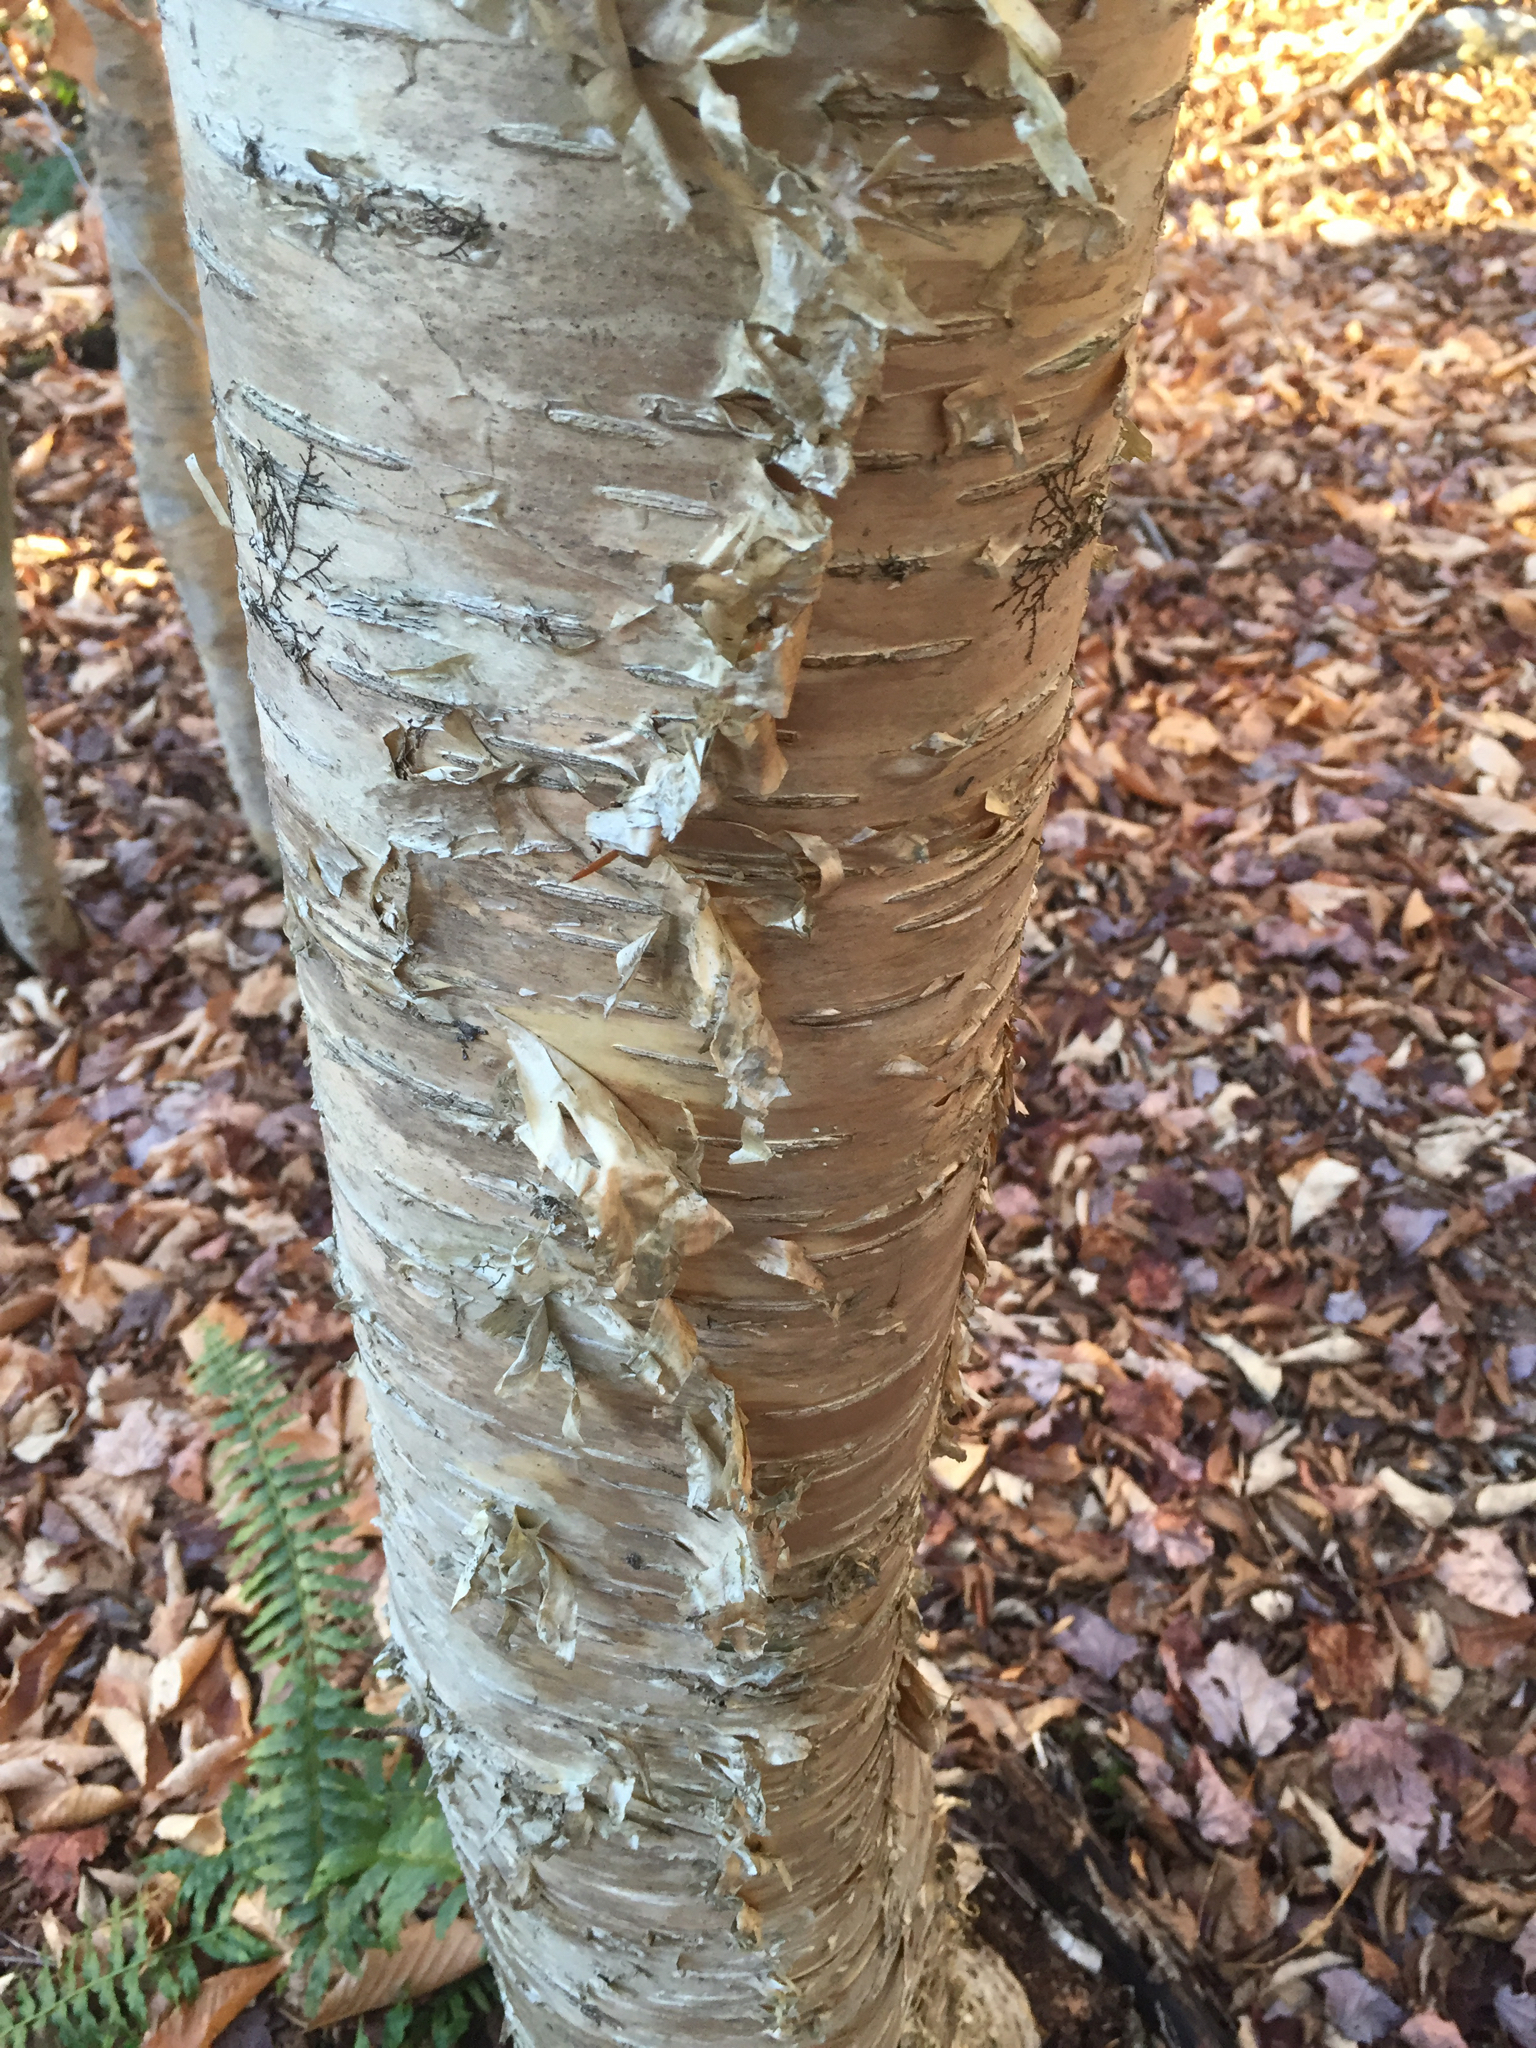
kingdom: Plantae
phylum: Tracheophyta
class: Magnoliopsida
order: Fagales
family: Betulaceae
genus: Betula
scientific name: Betula alleghaniensis
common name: Yellow birch
